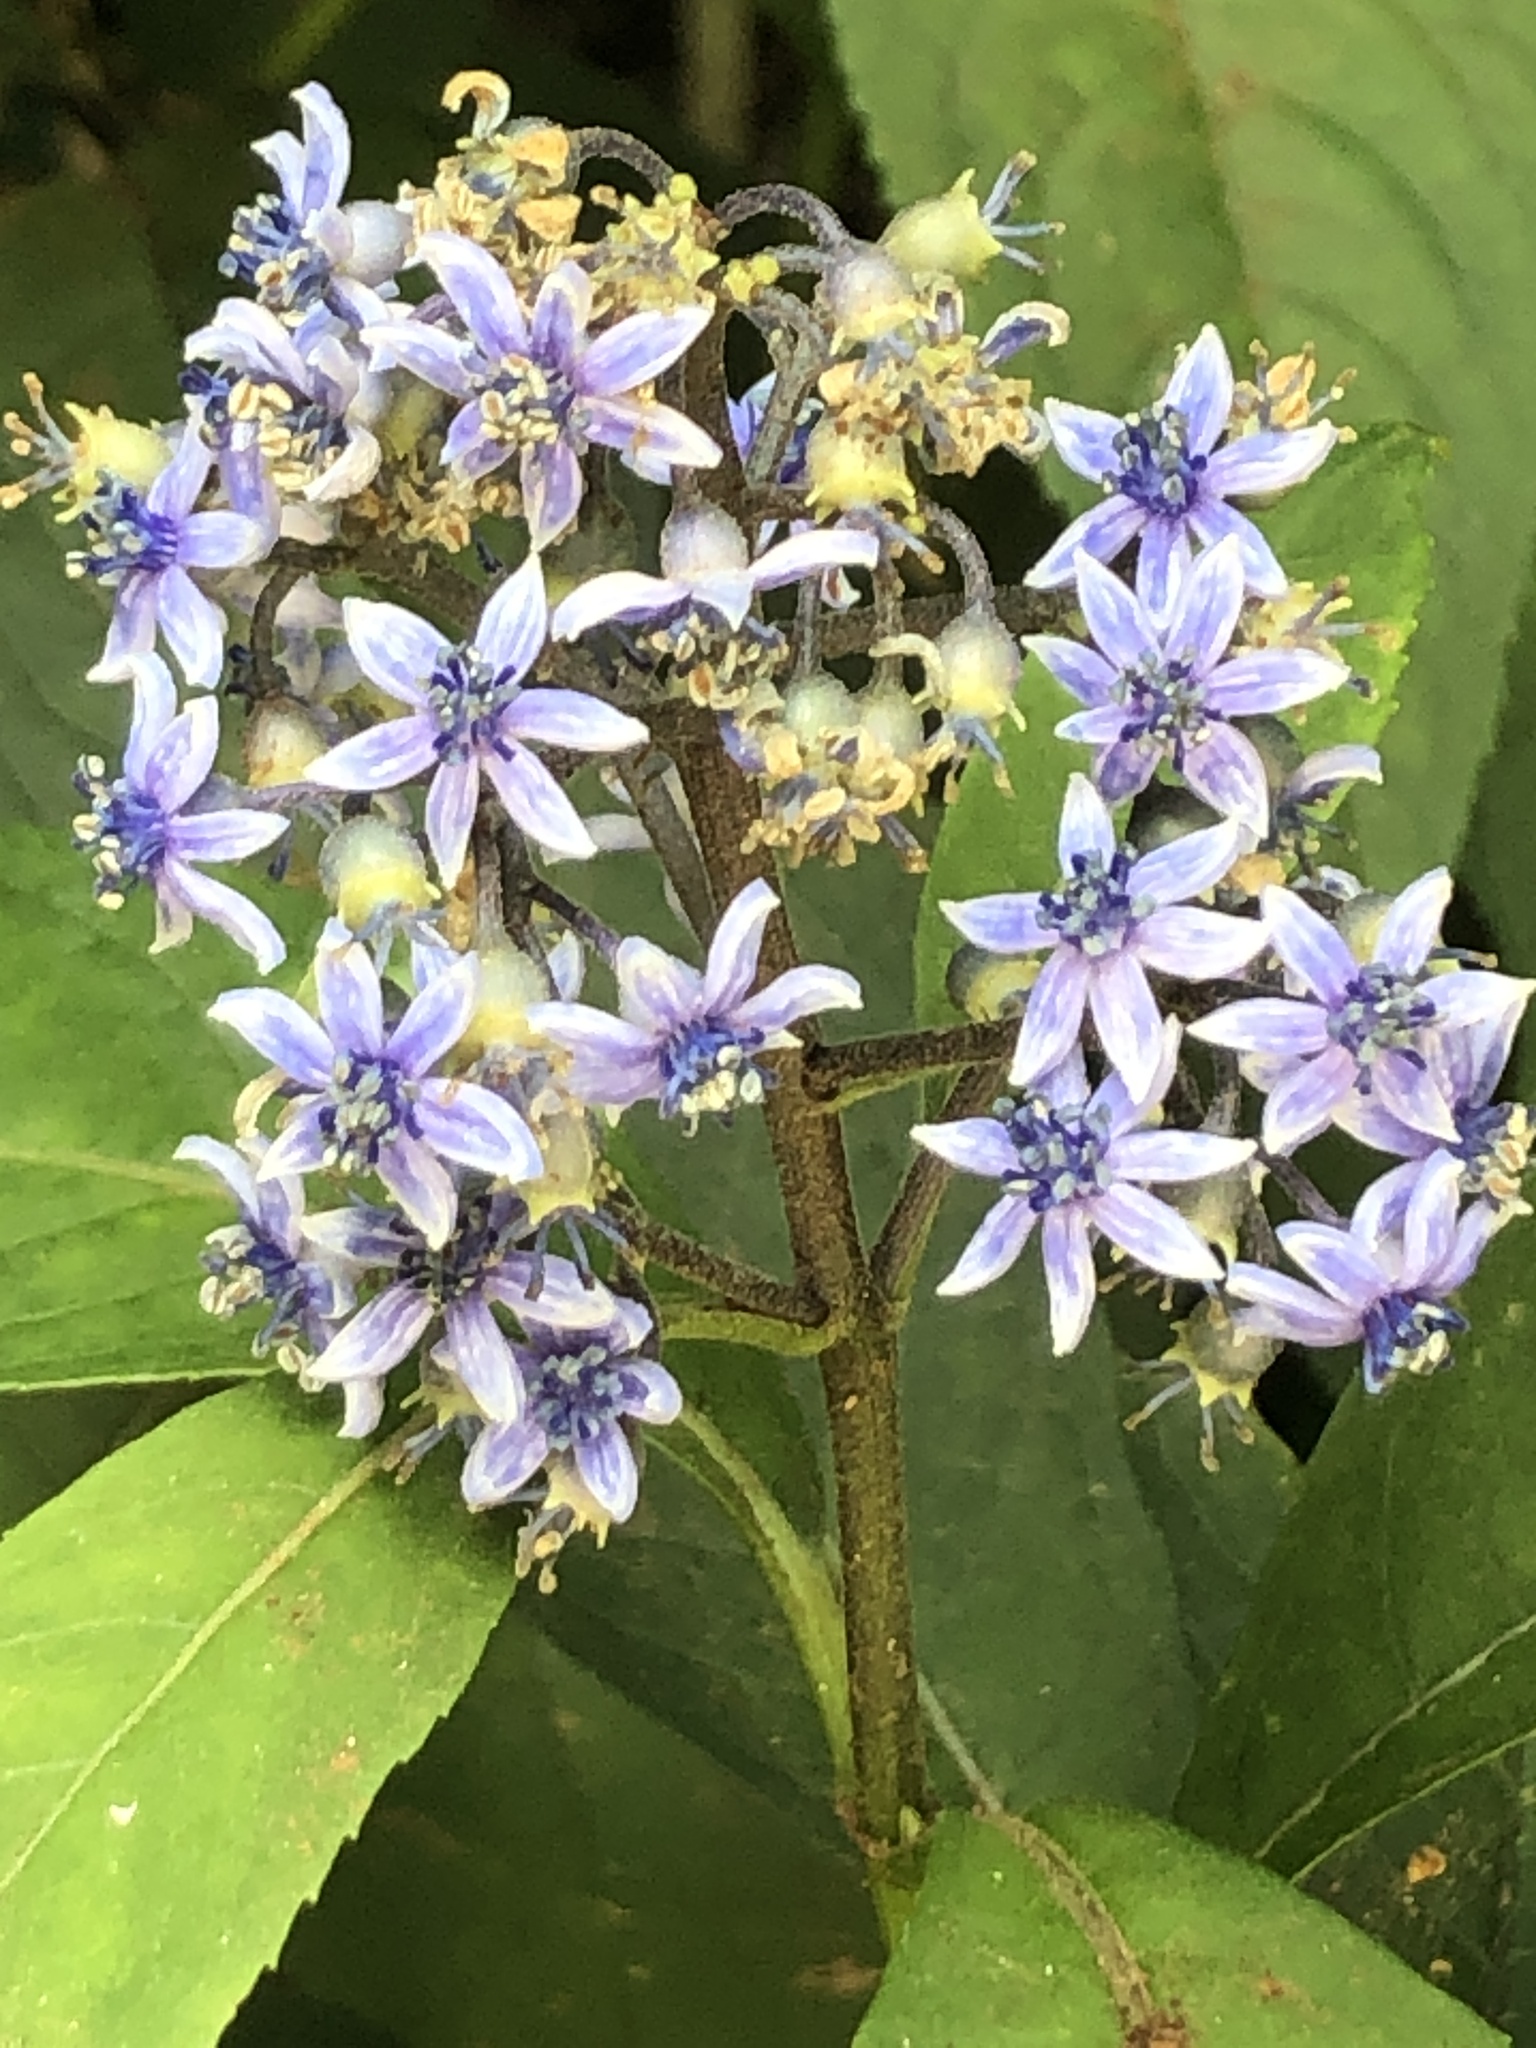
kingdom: Plantae
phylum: Tracheophyta
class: Magnoliopsida
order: Cornales
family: Hydrangeaceae
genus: Hydrangea
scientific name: Hydrangea febrifuga
